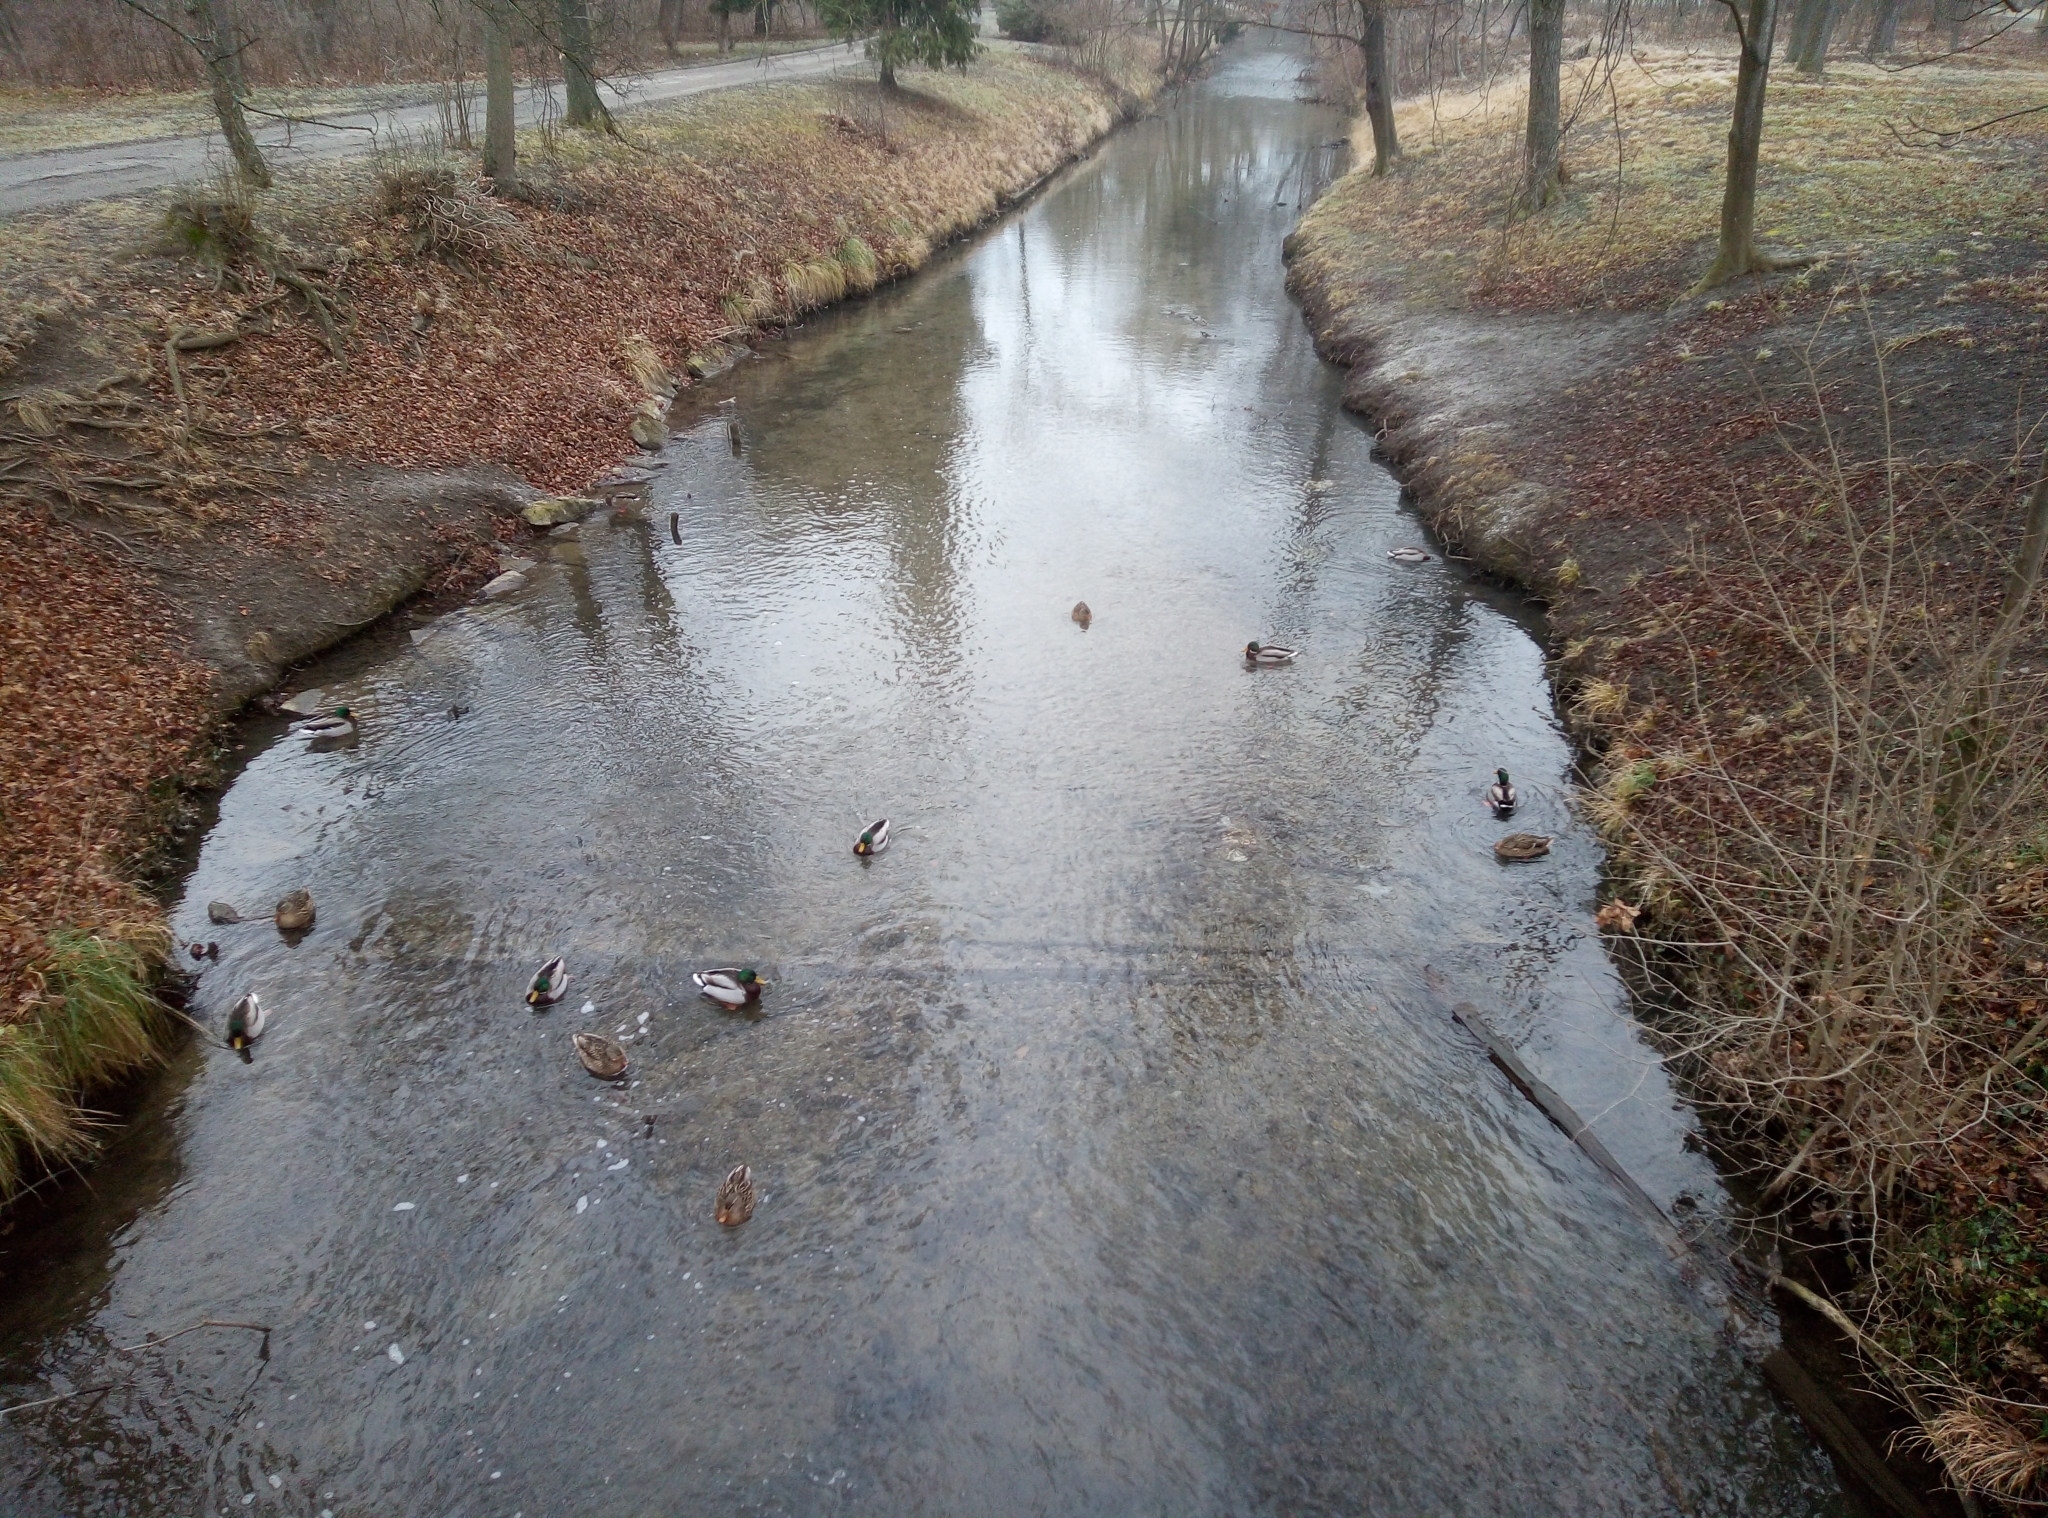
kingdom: Animalia
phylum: Chordata
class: Aves
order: Anseriformes
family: Anatidae
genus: Anas
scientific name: Anas platyrhynchos
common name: Mallard
